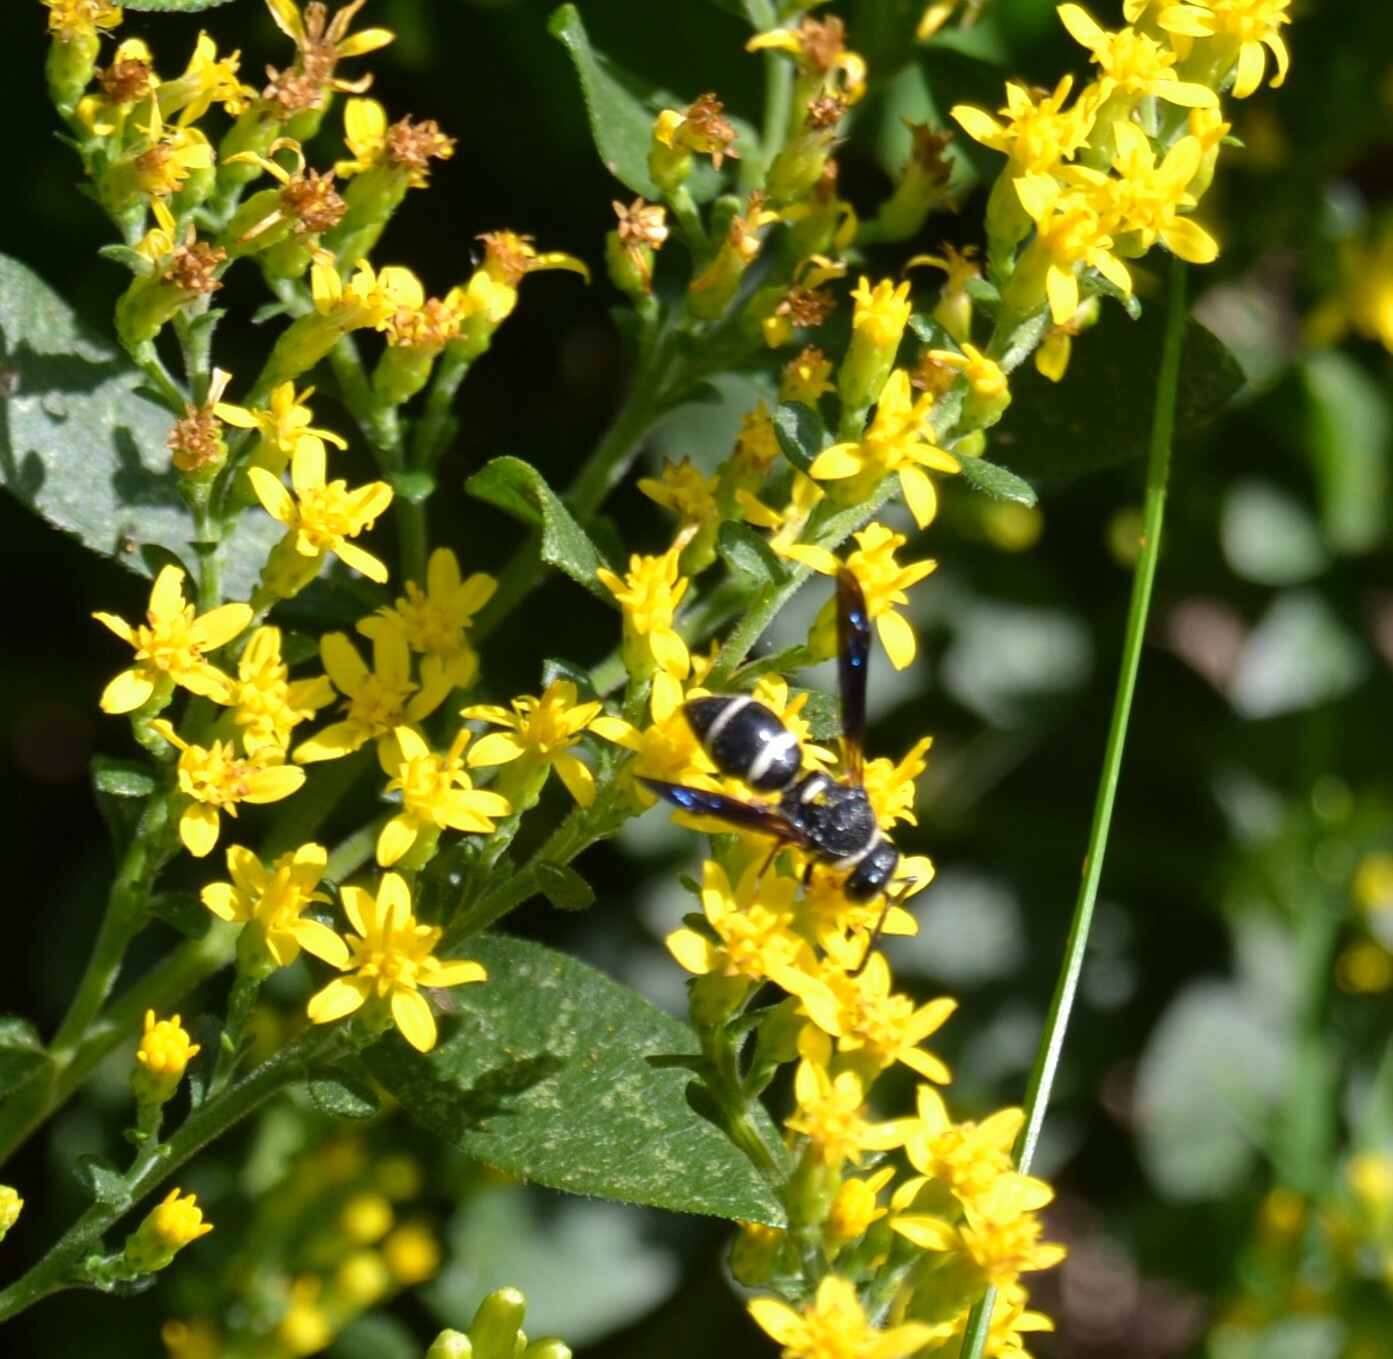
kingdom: Animalia
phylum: Arthropoda
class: Insecta
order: Hymenoptera
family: Eumenidae
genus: Euodynerus
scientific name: Euodynerus
